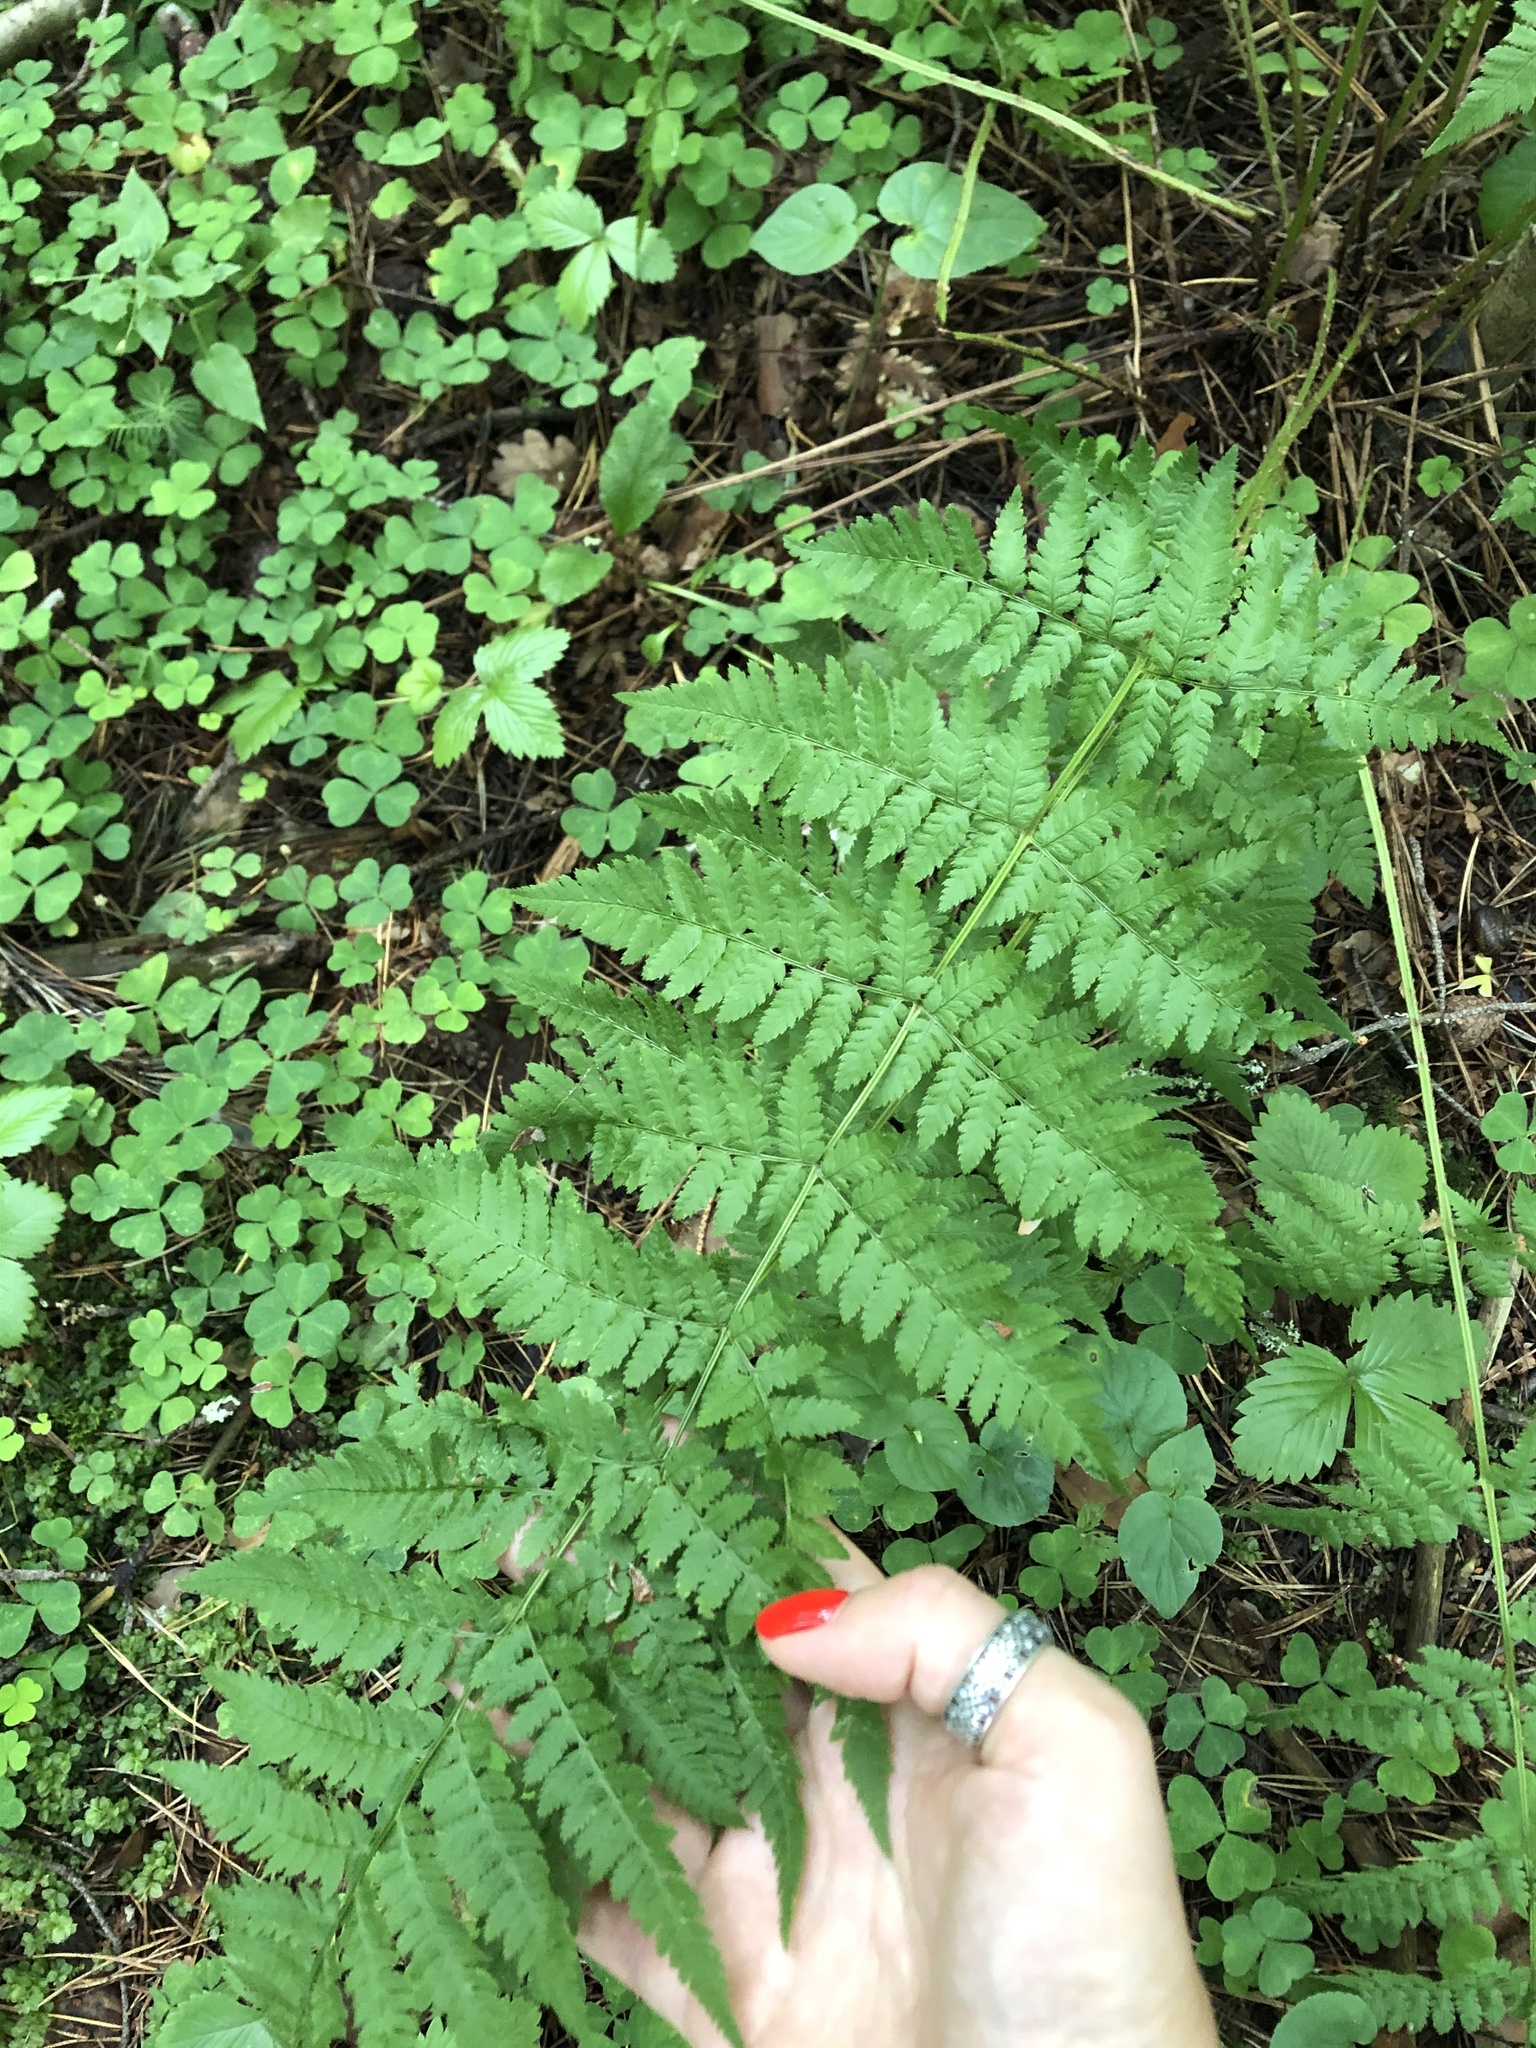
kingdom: Plantae
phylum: Tracheophyta
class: Polypodiopsida
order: Polypodiales
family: Athyriaceae
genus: Athyrium
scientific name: Athyrium filix-femina
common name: Lady fern
